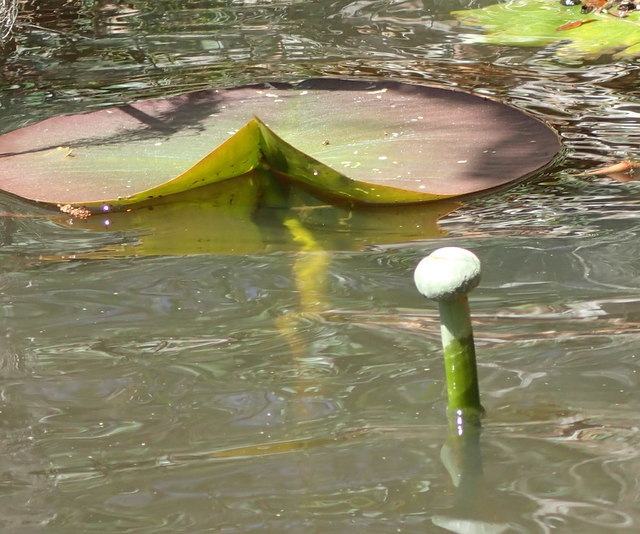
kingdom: Plantae
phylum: Tracheophyta
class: Magnoliopsida
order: Nymphaeales
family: Nymphaeaceae
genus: Nuphar
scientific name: Nuphar advena
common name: Spatter-dock
